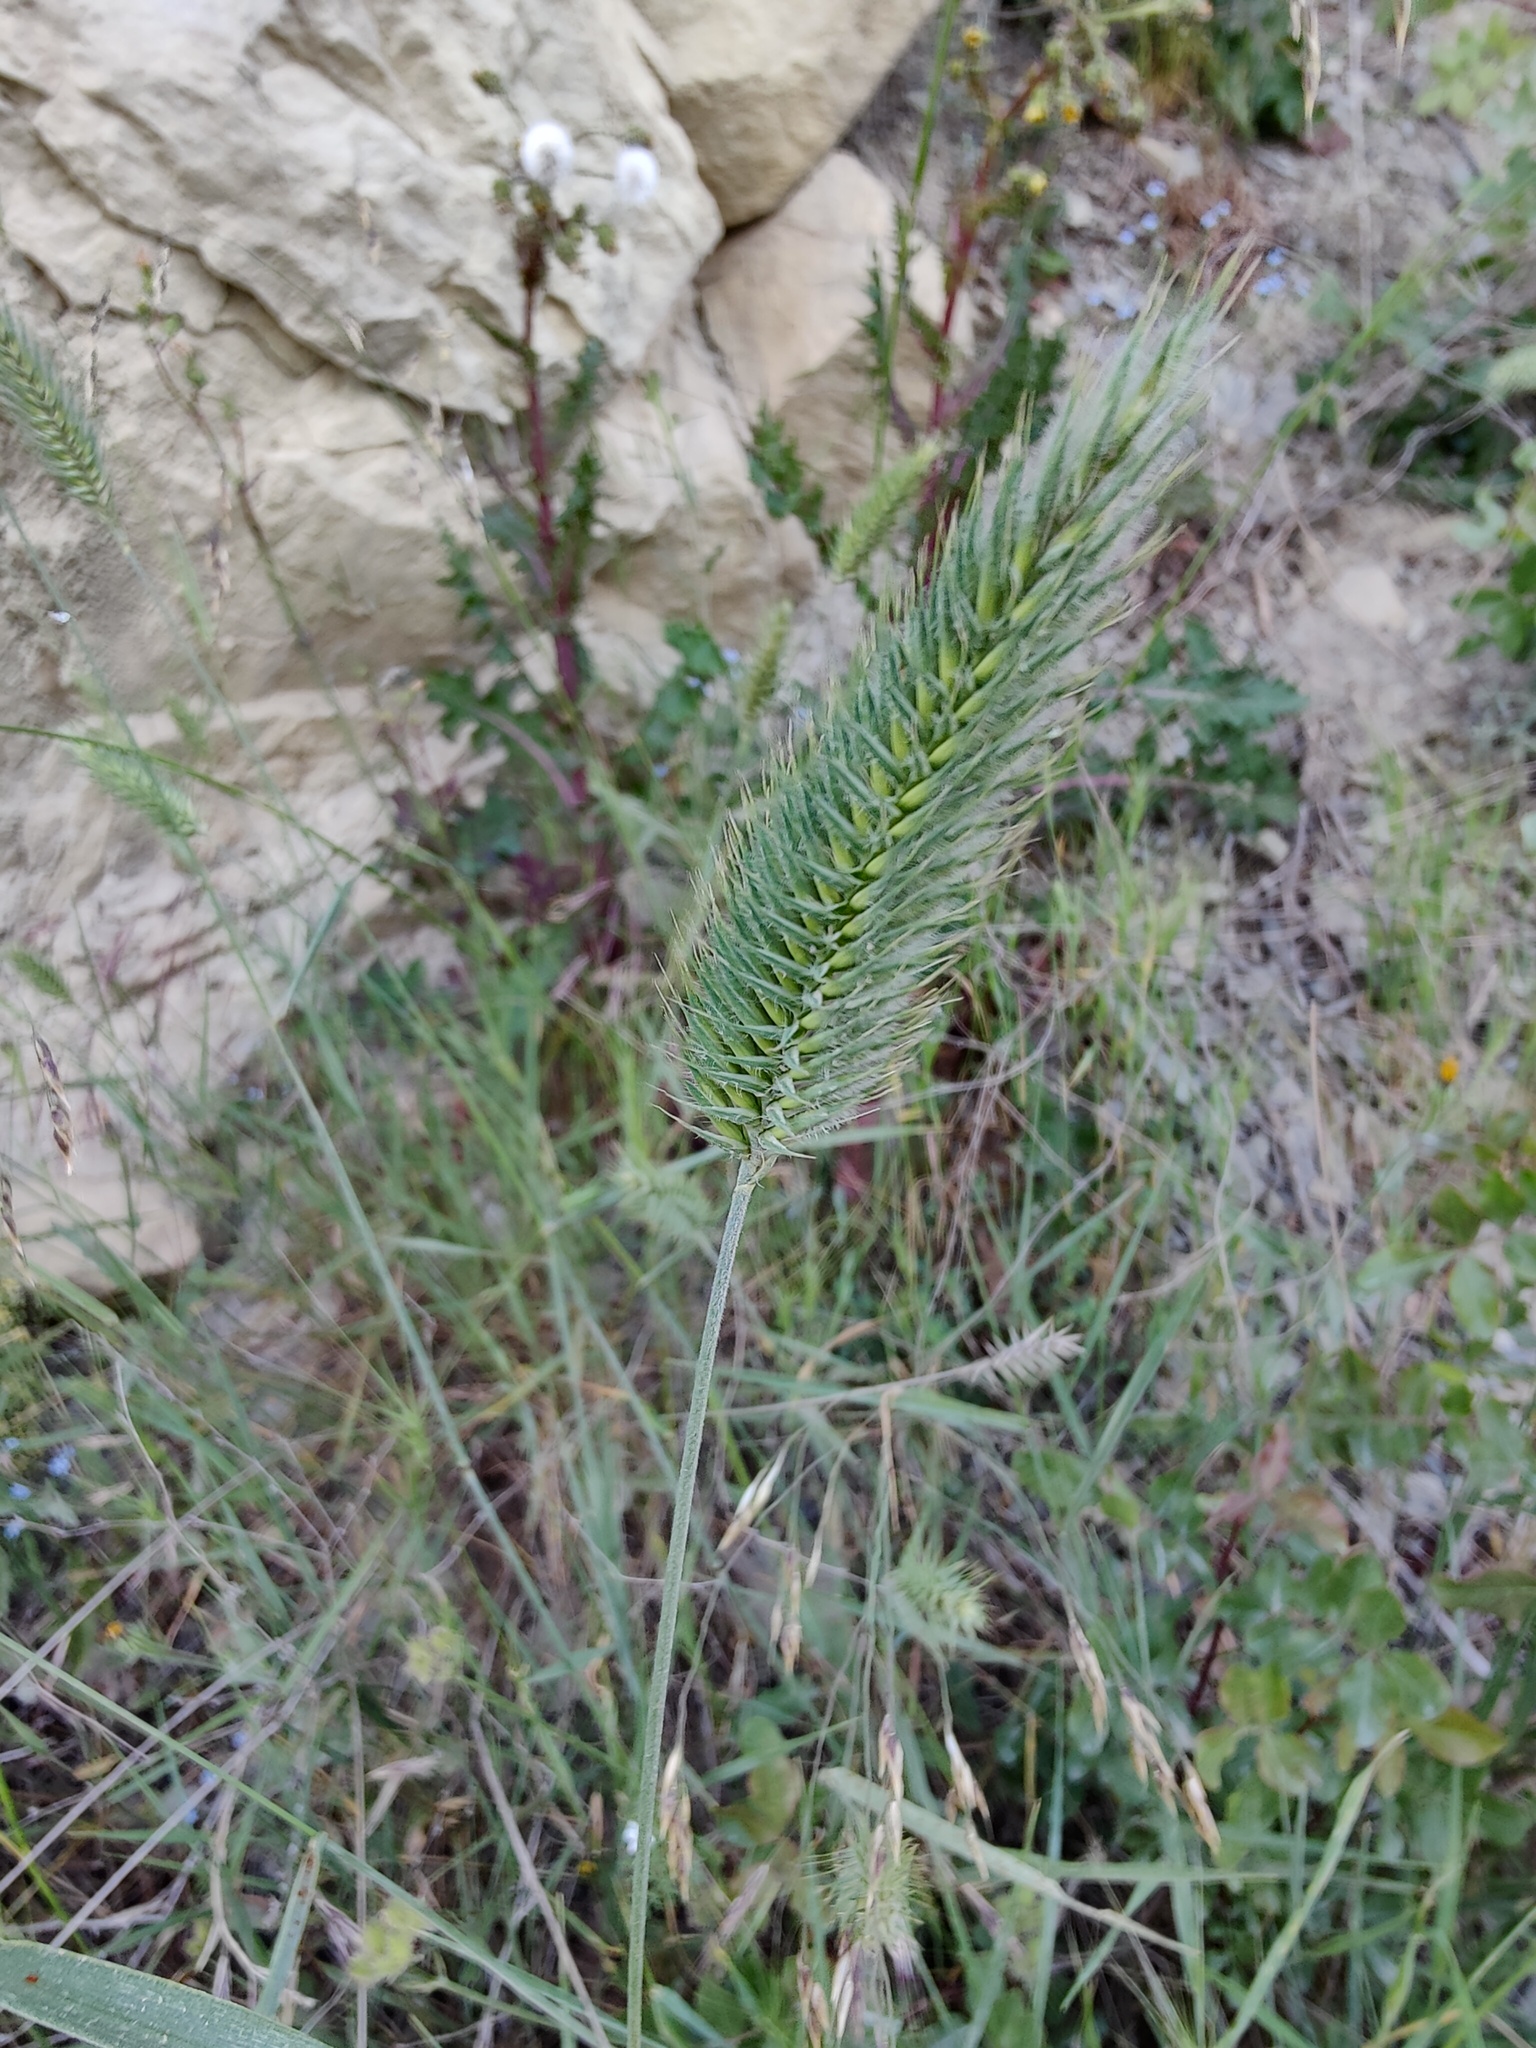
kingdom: Plantae
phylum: Tracheophyta
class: Liliopsida
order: Poales
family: Poaceae
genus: Agropyron
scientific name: Agropyron cristatum
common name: Crested wheatgrass
